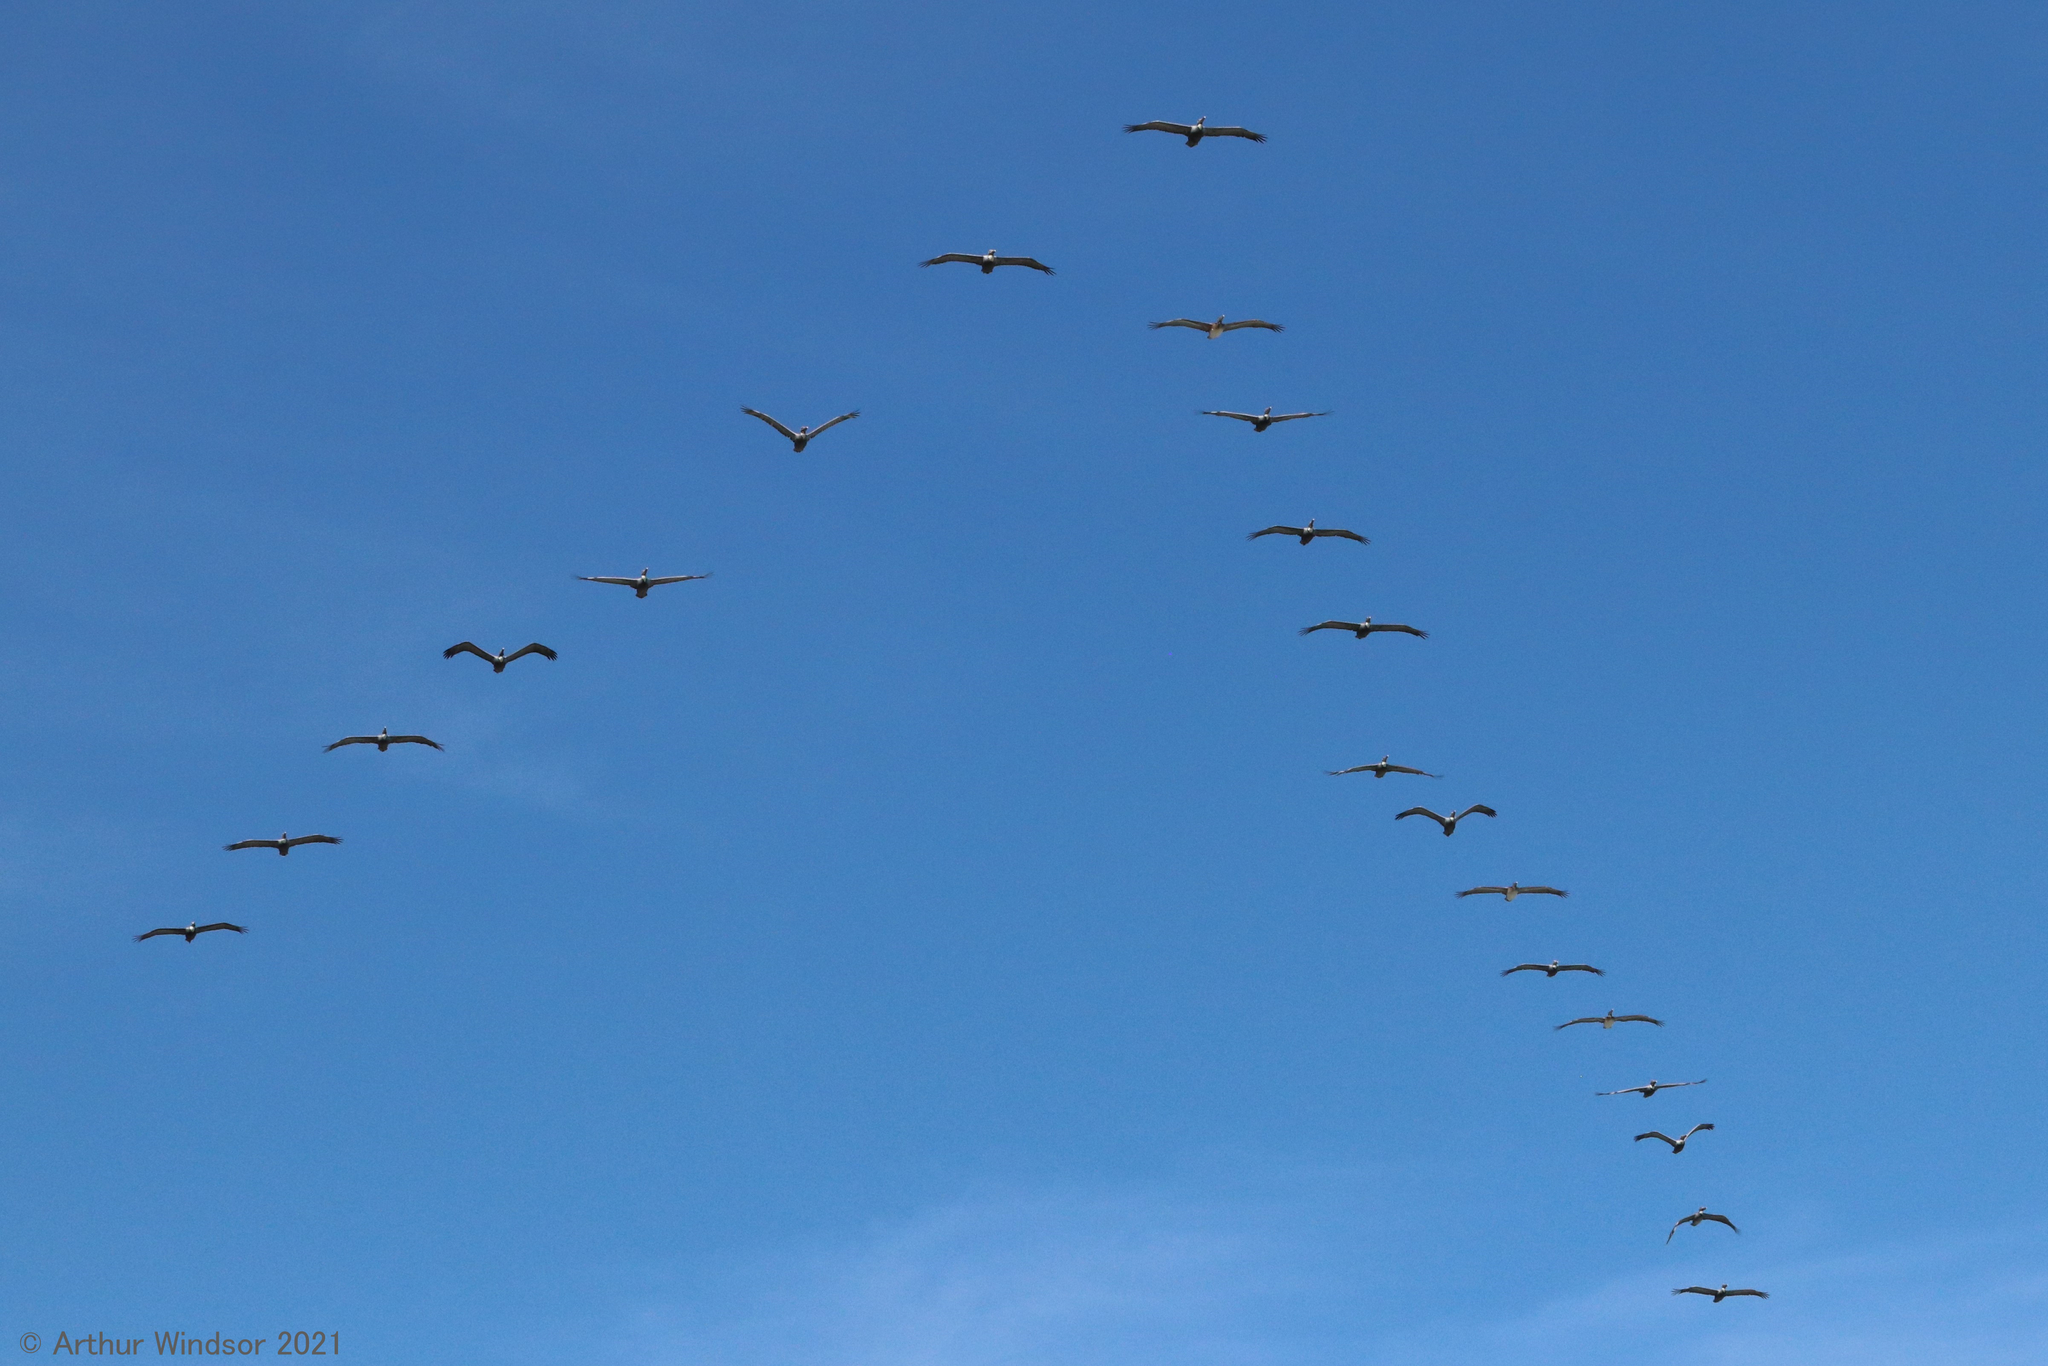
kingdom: Animalia
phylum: Chordata
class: Aves
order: Pelecaniformes
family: Pelecanidae
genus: Pelecanus
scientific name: Pelecanus occidentalis
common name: Brown pelican
